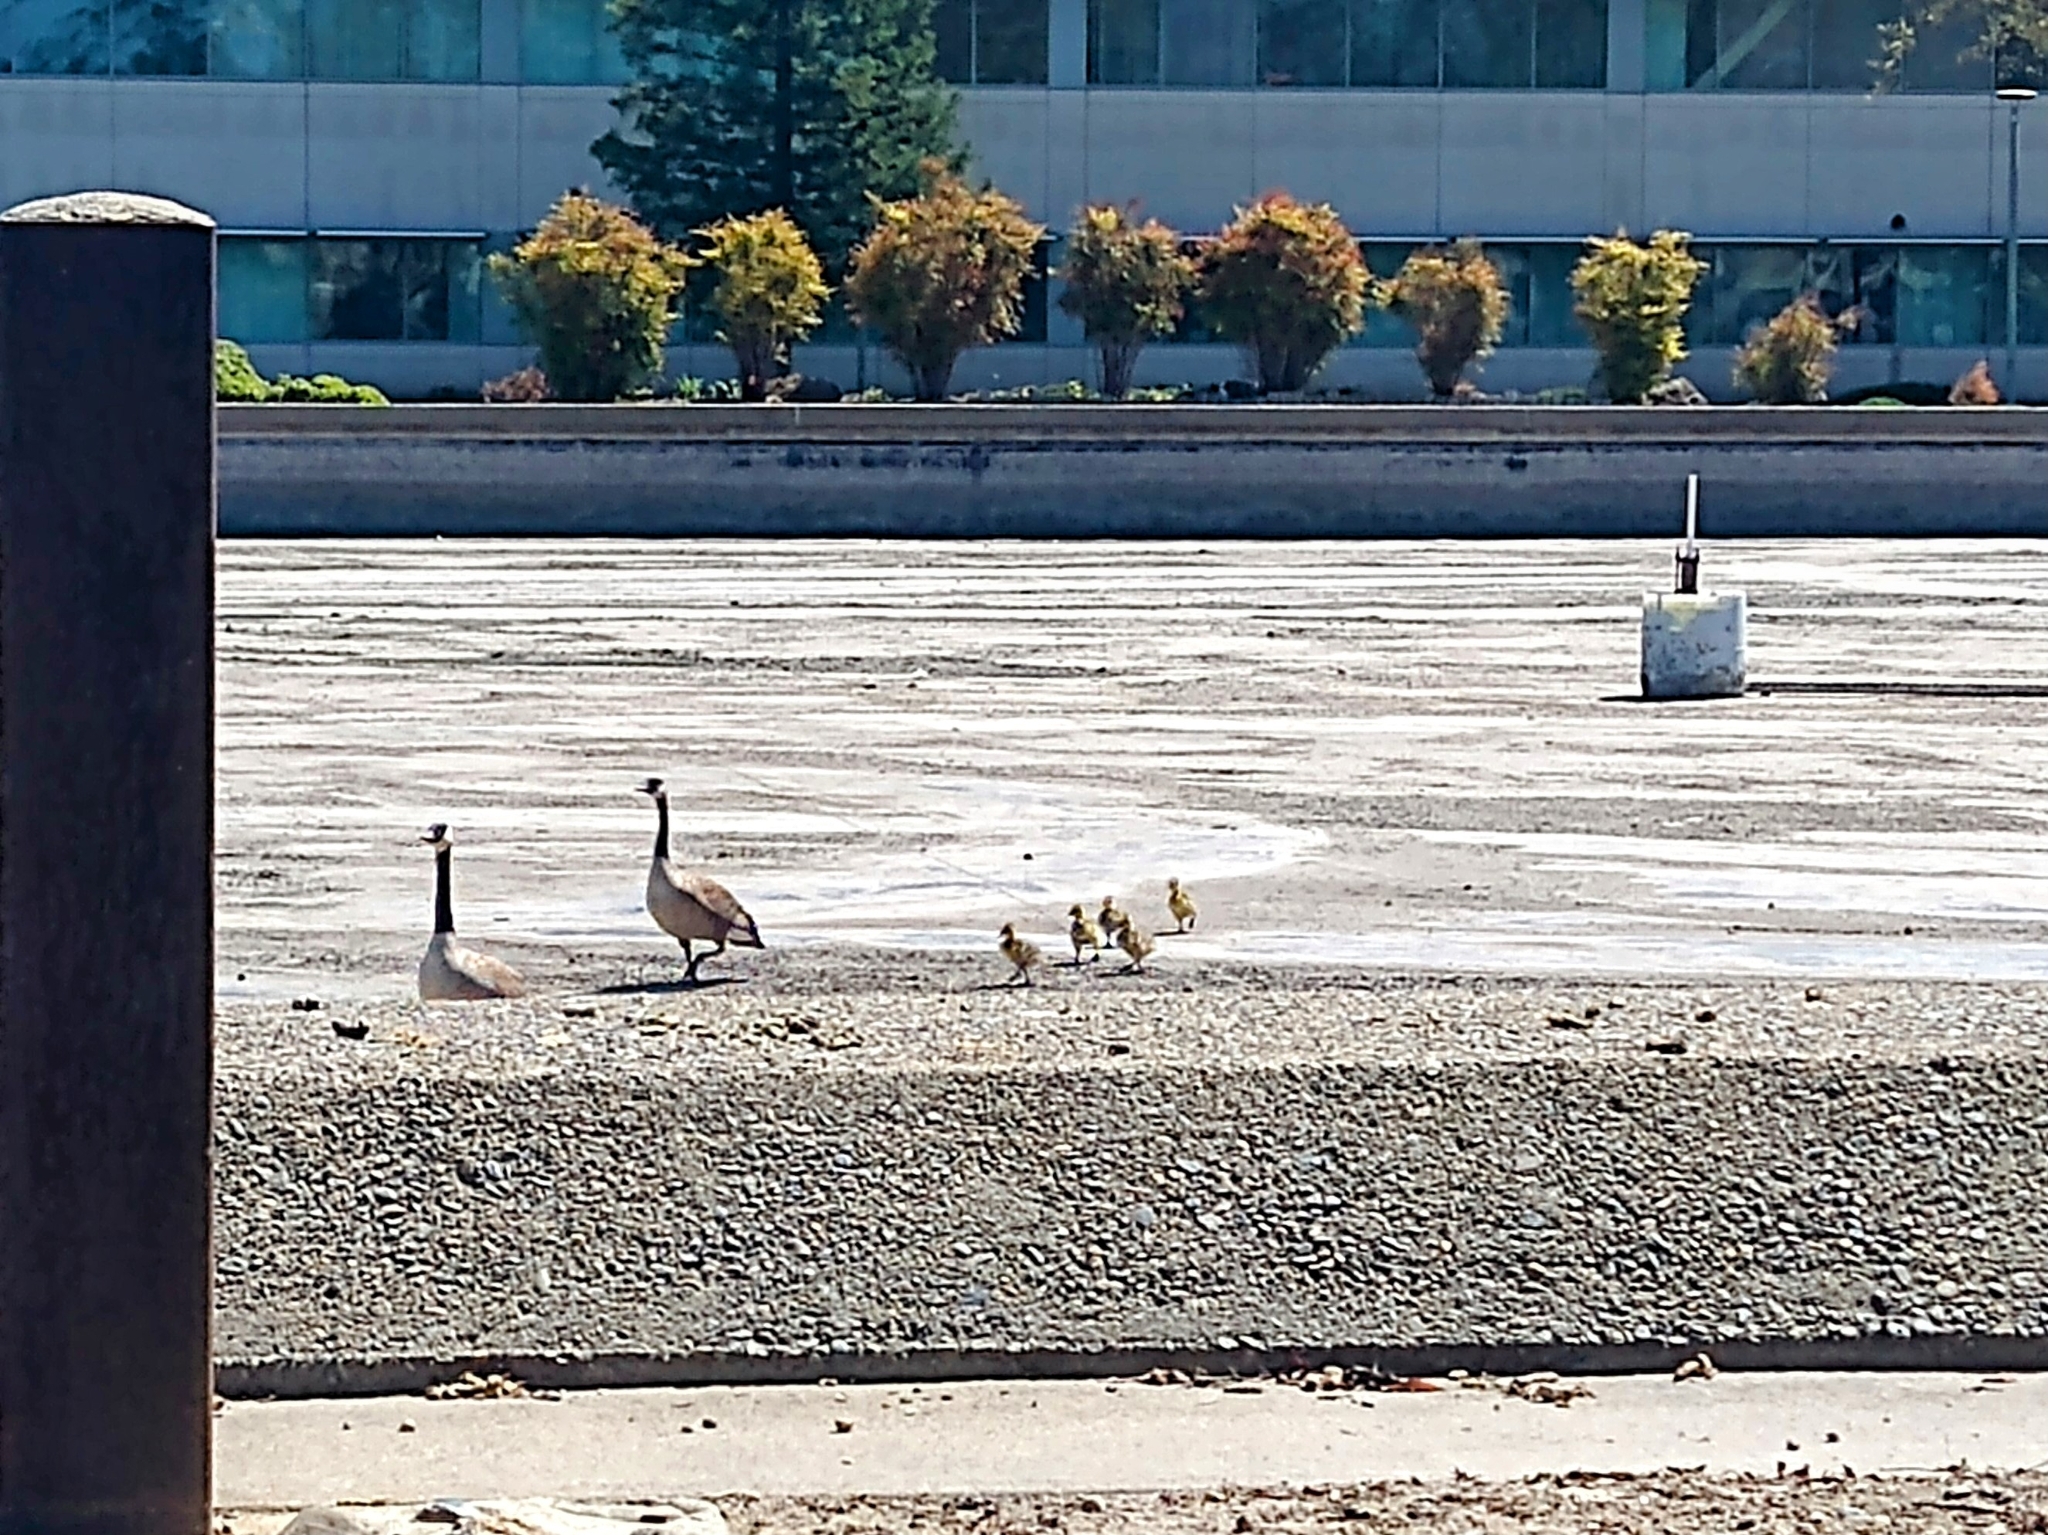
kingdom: Animalia
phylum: Chordata
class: Aves
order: Anseriformes
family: Anatidae
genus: Branta
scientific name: Branta canadensis
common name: Canada goose
